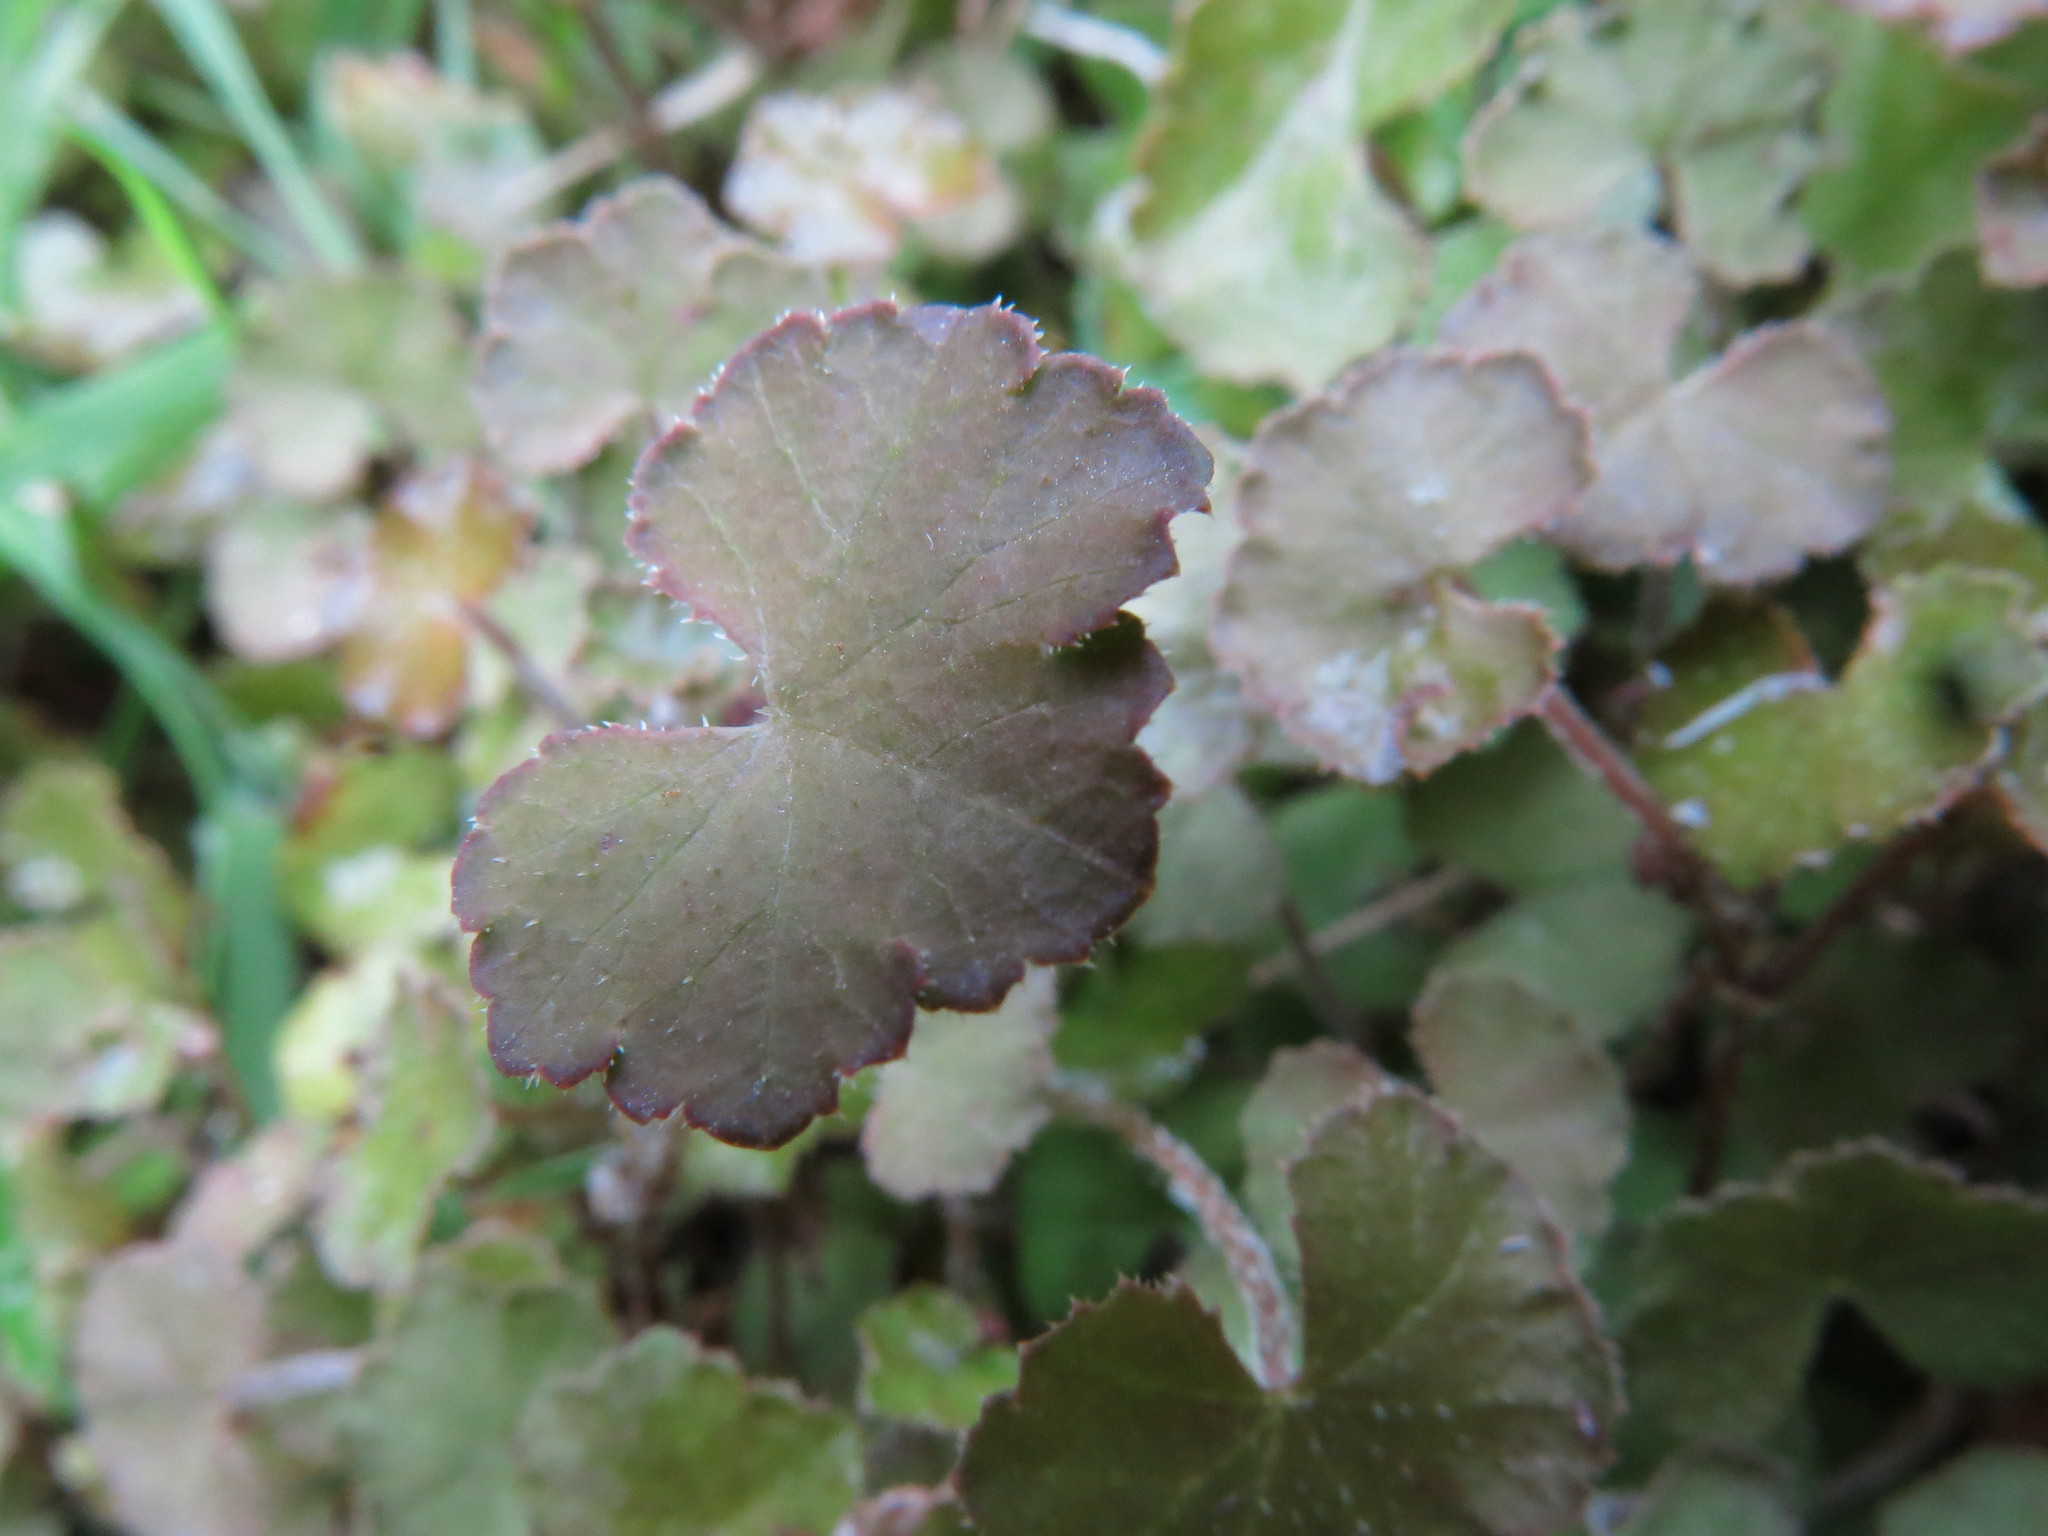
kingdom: Plantae
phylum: Tracheophyta
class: Magnoliopsida
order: Apiales
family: Araliaceae
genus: Hydrocotyle
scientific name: Hydrocotyle novae-zeelandiae
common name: New zealand pennywort
